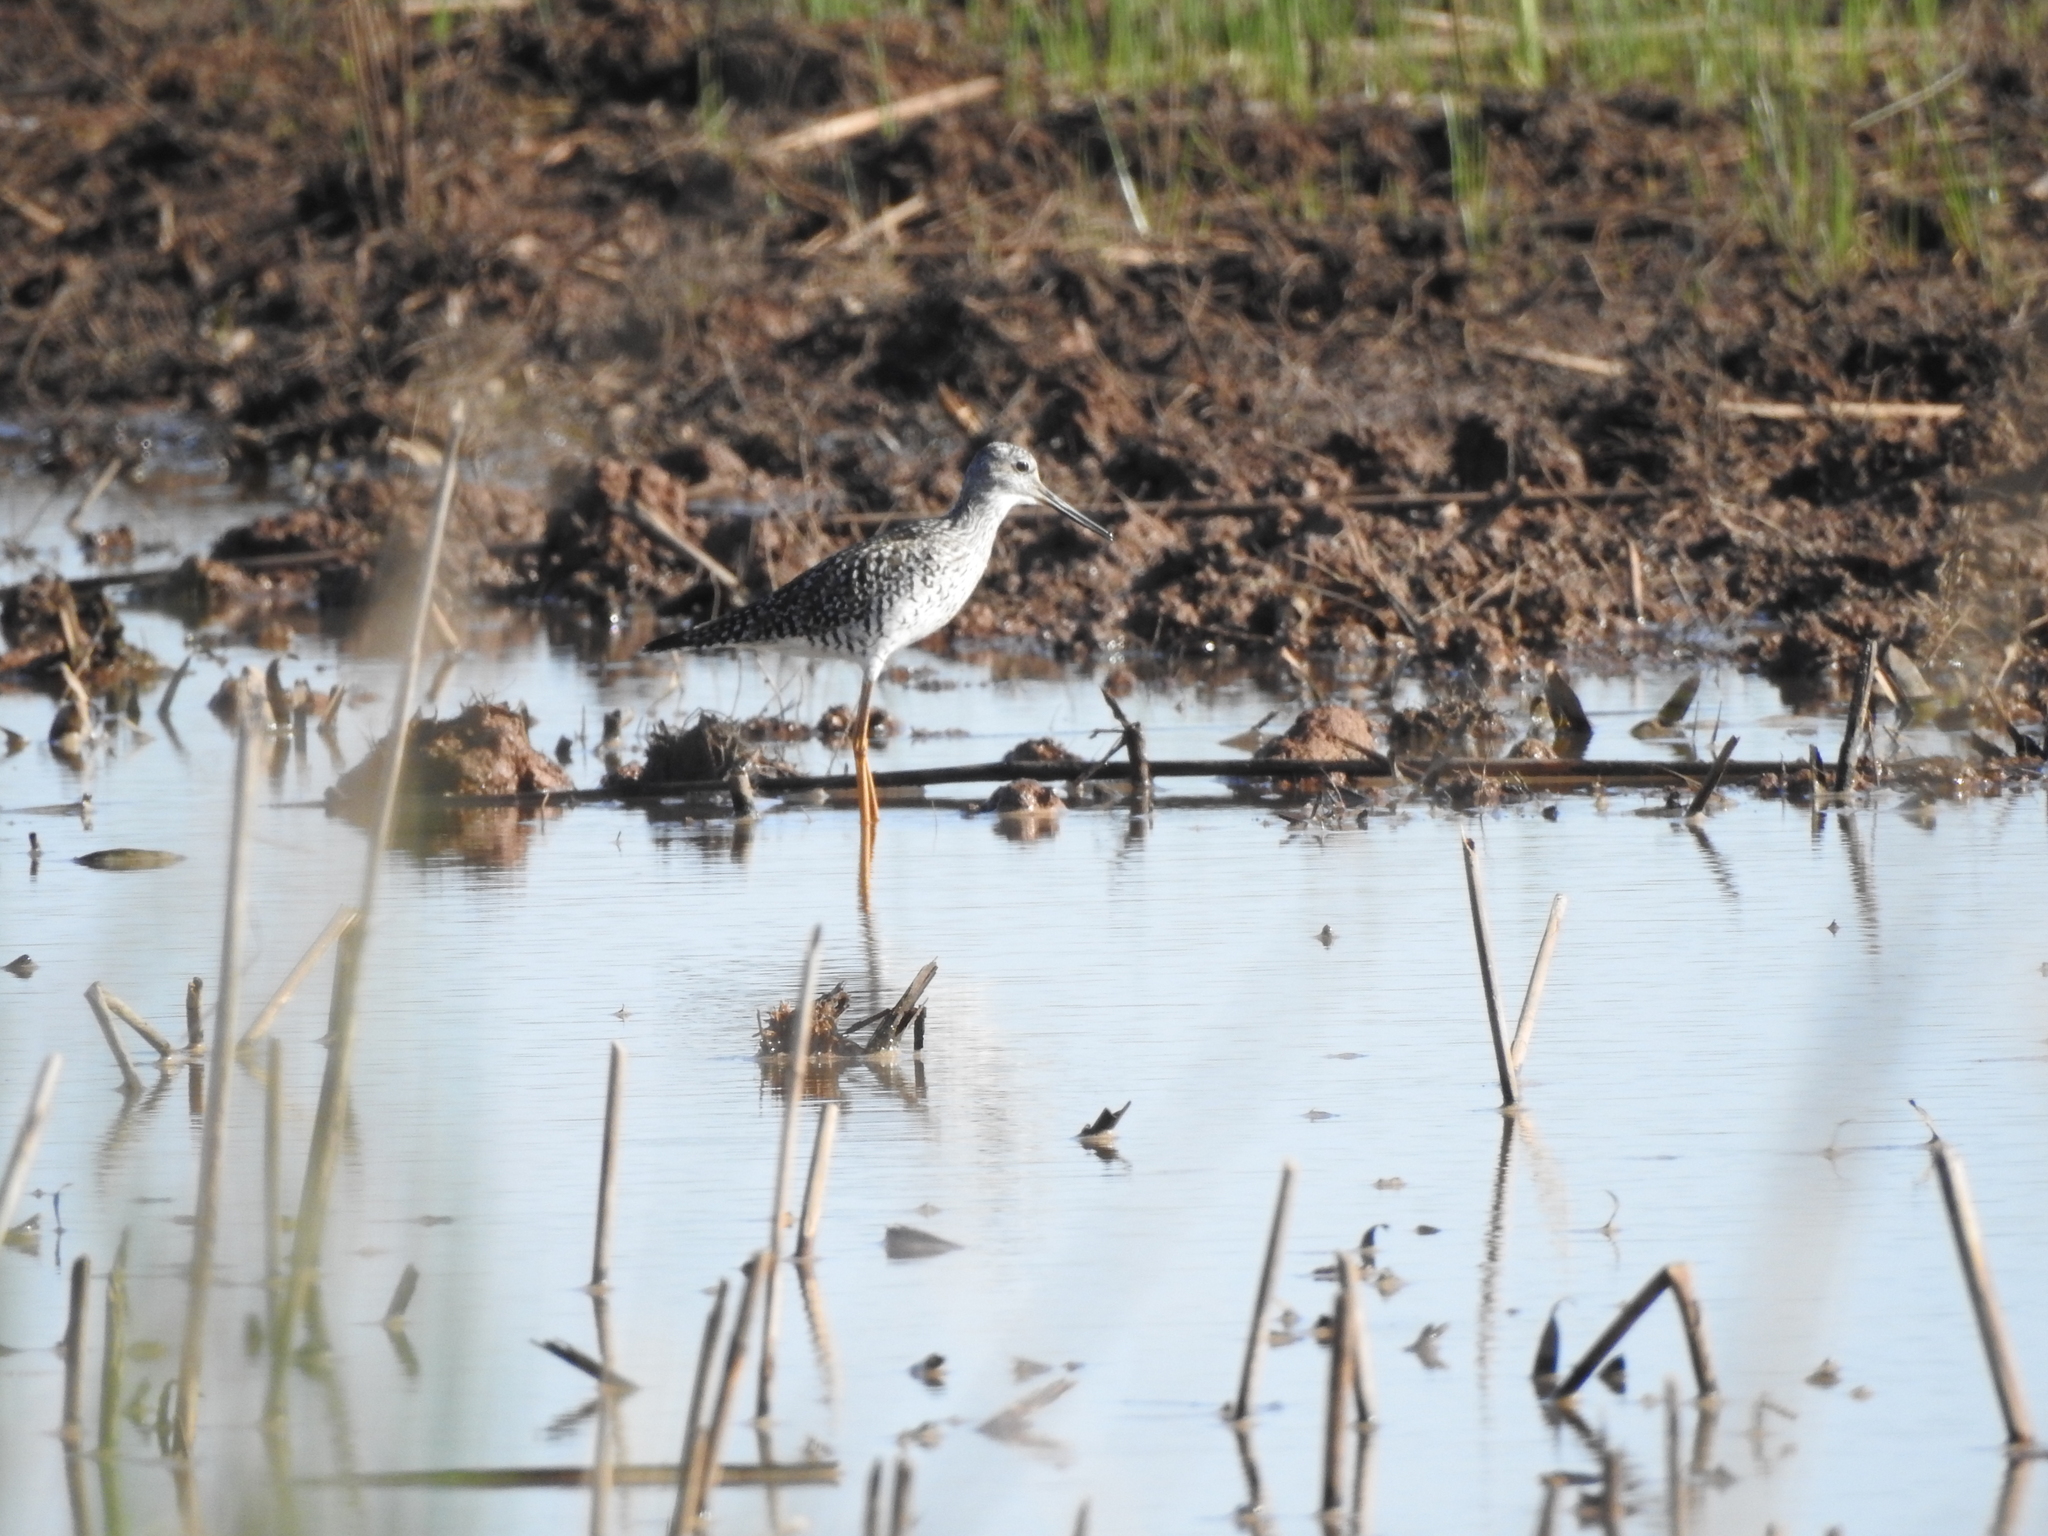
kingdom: Animalia
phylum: Chordata
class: Aves
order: Charadriiformes
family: Scolopacidae
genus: Tringa
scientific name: Tringa melanoleuca
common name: Greater yellowlegs
